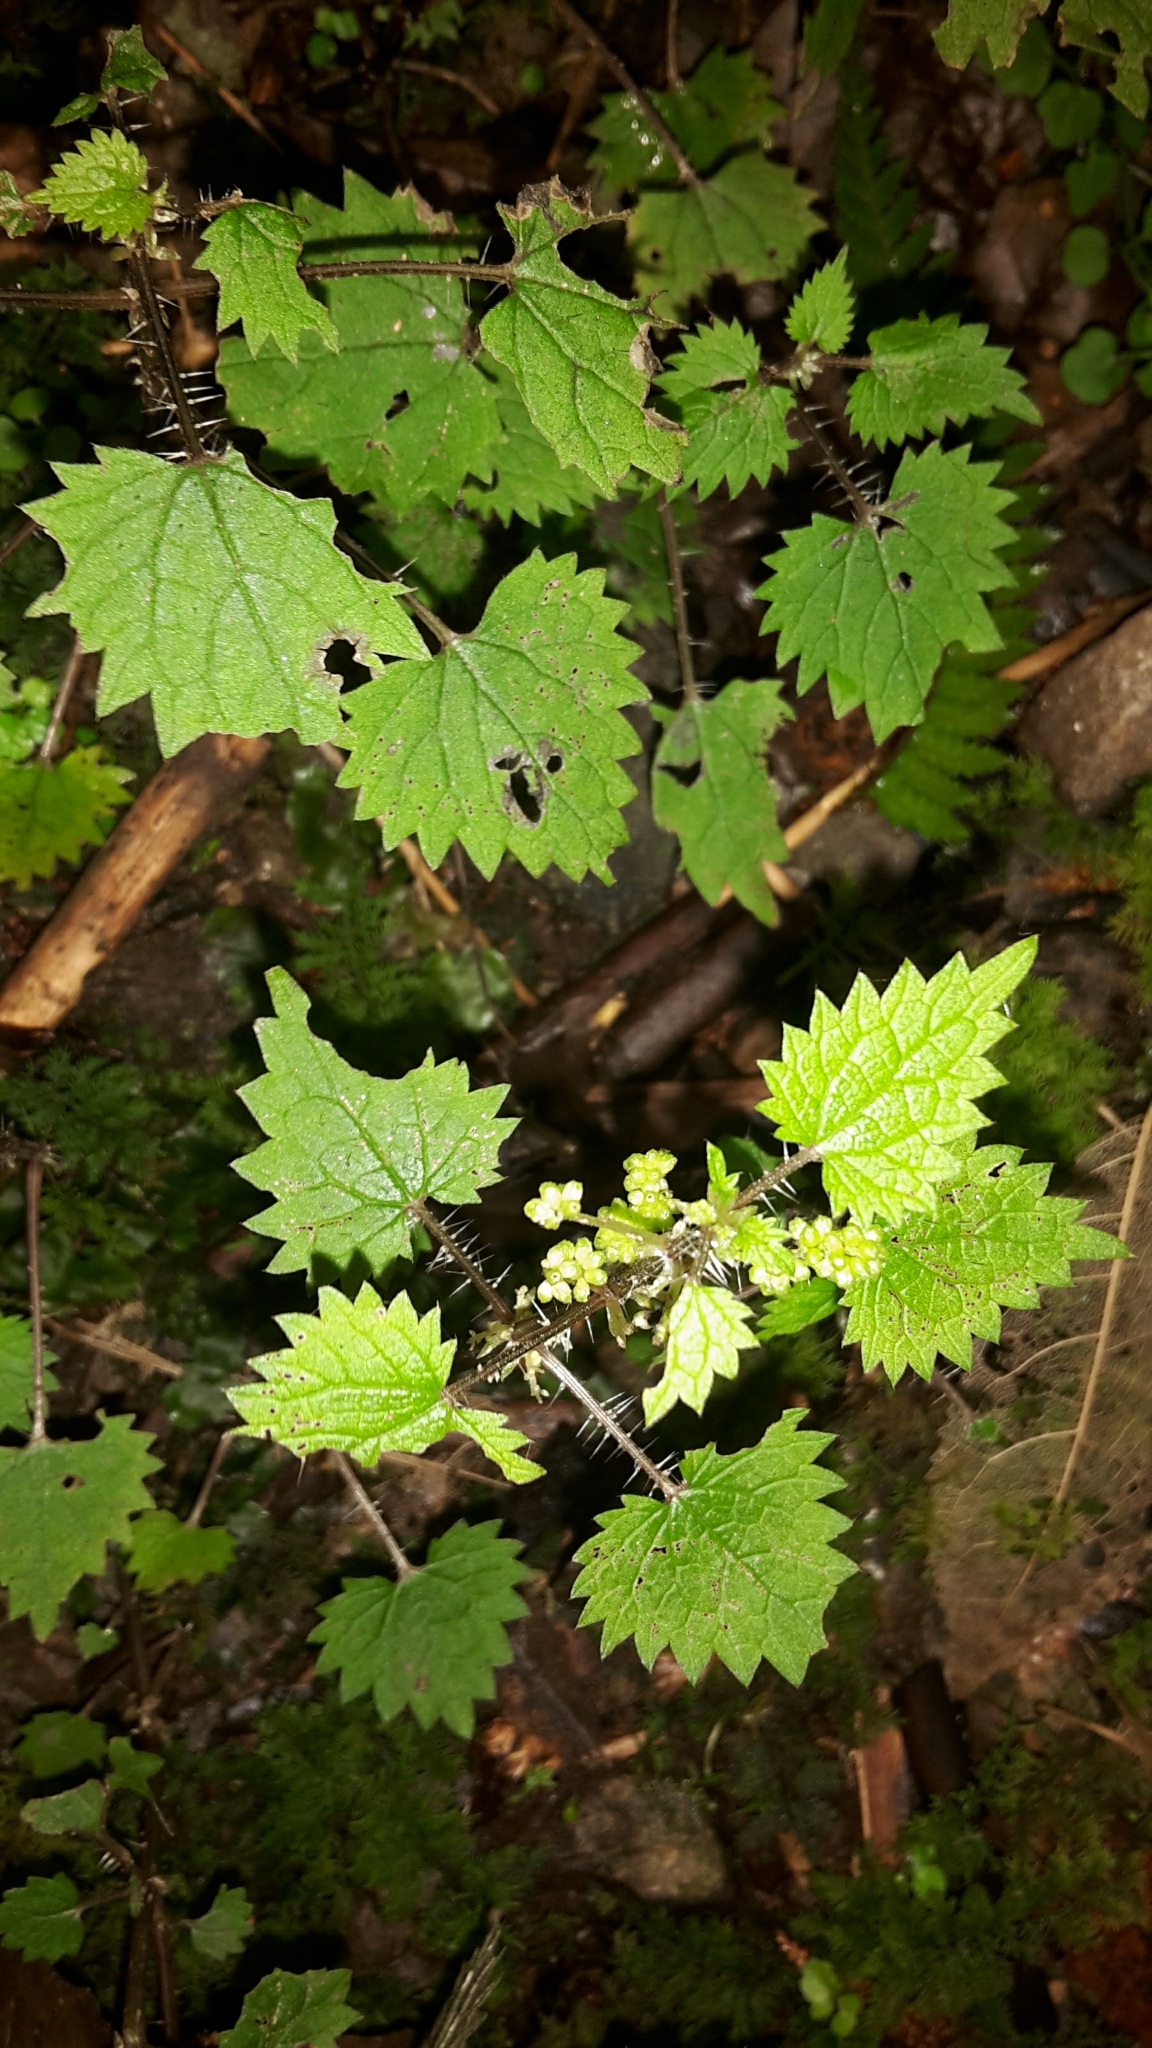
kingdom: Plantae
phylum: Tracheophyta
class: Magnoliopsida
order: Rosales
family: Urticaceae
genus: Urtica
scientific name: Urtica sykesii
